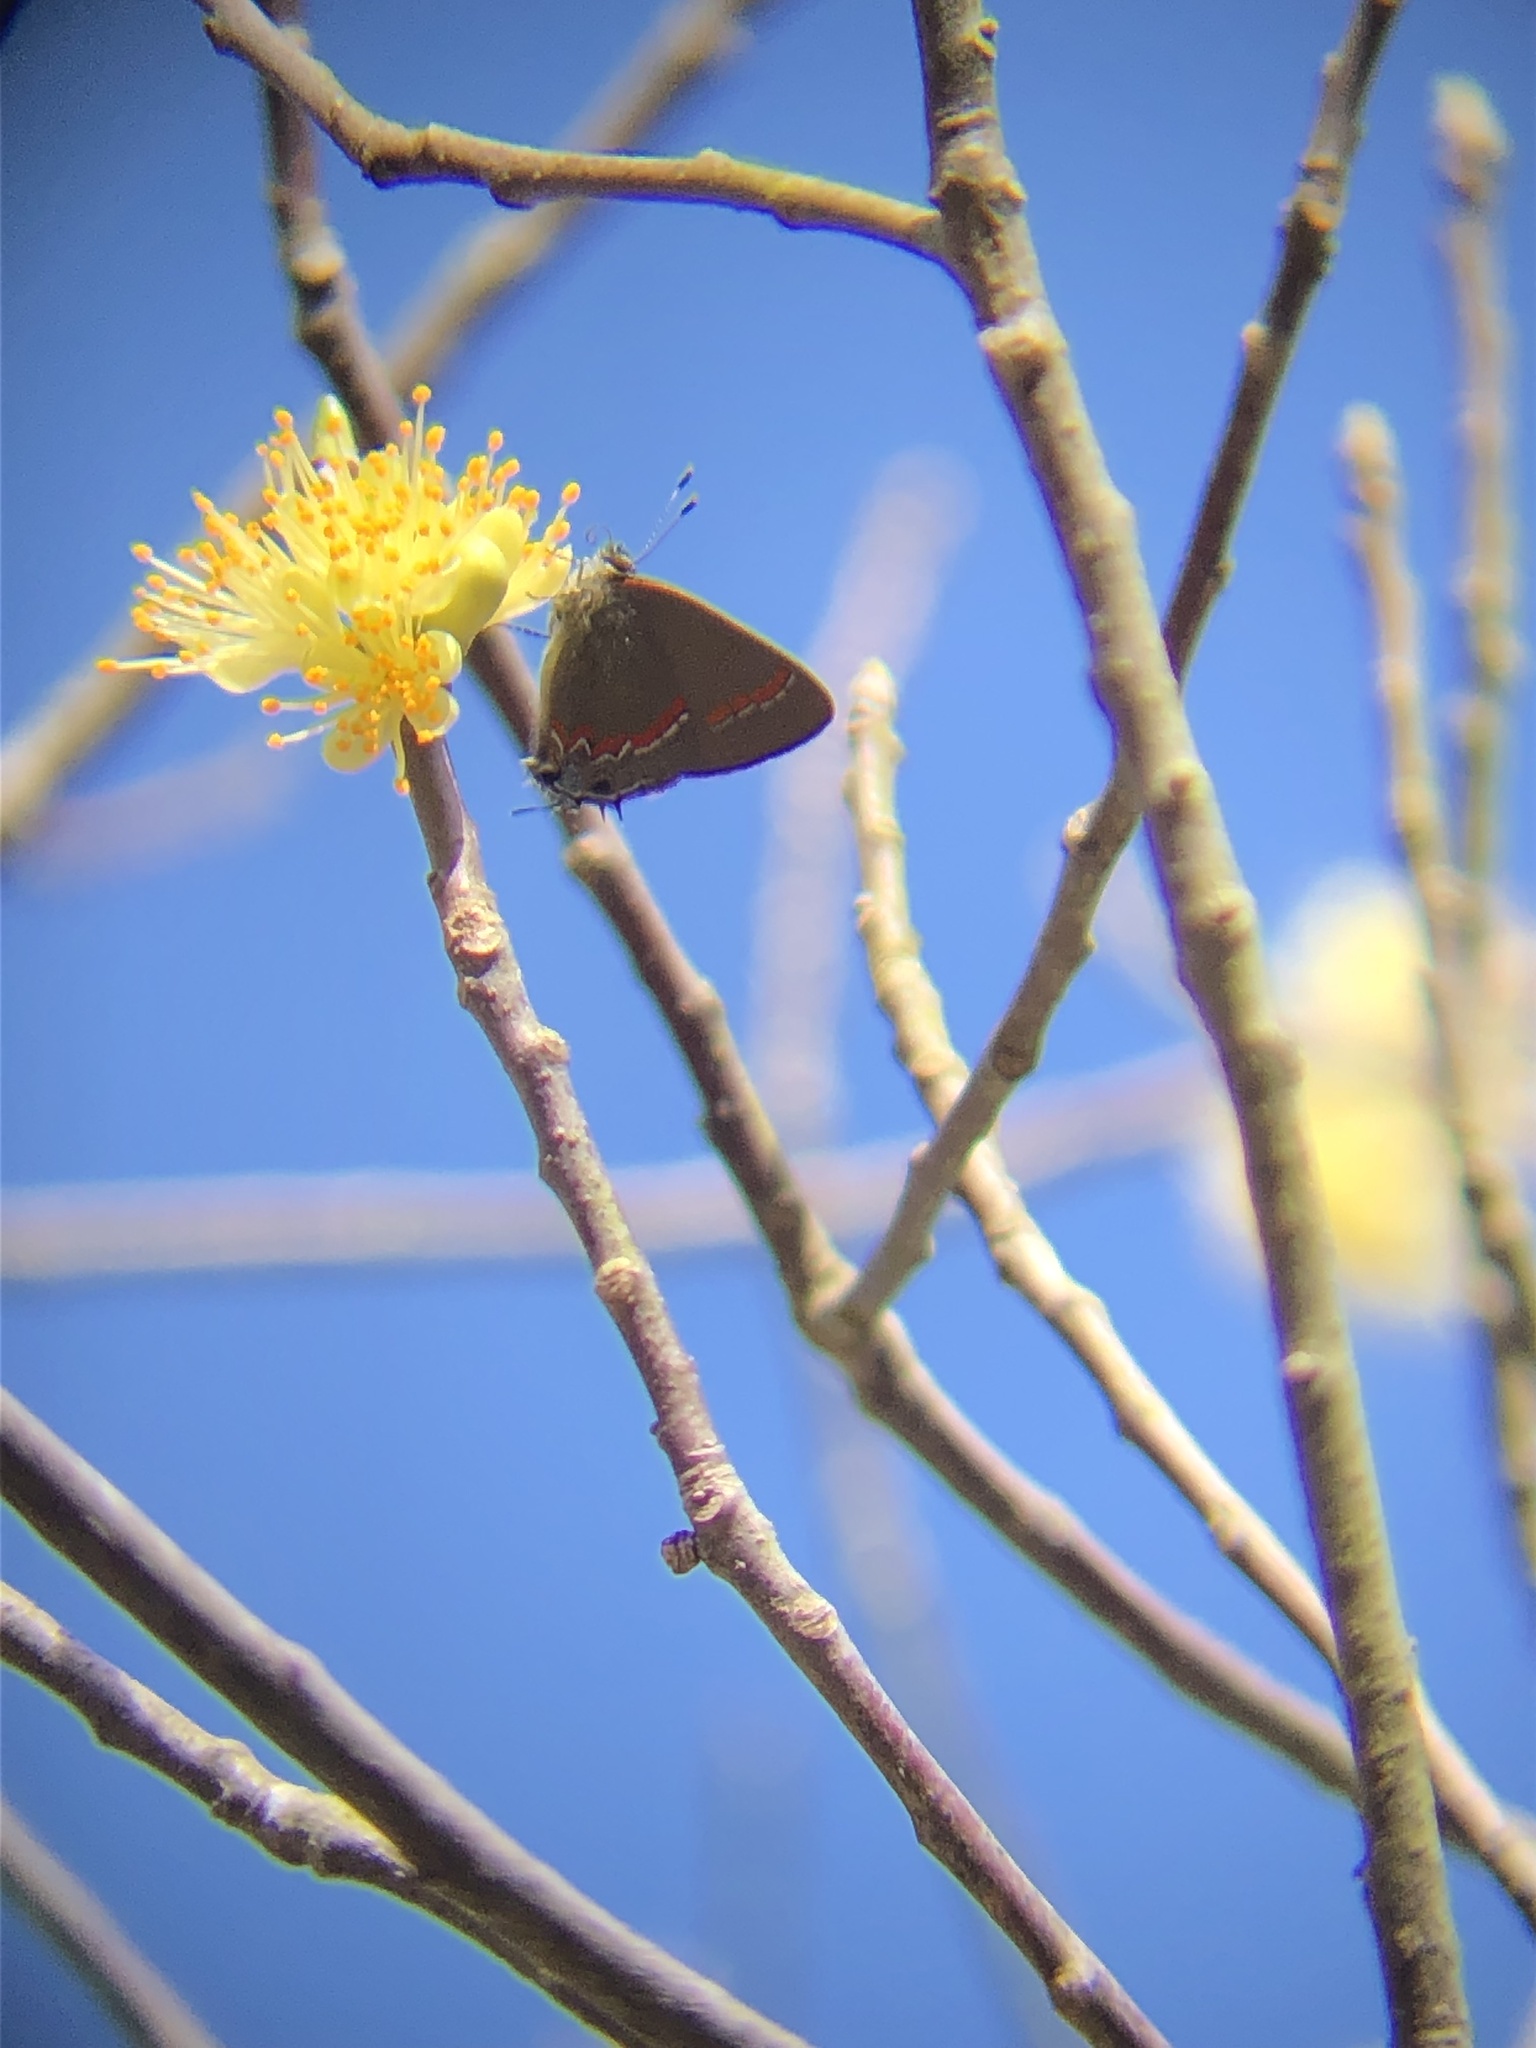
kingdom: Animalia
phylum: Arthropoda
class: Insecta
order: Lepidoptera
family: Lycaenidae
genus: Calycopis
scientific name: Calycopis cecrops
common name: Red-banded hairstreak
